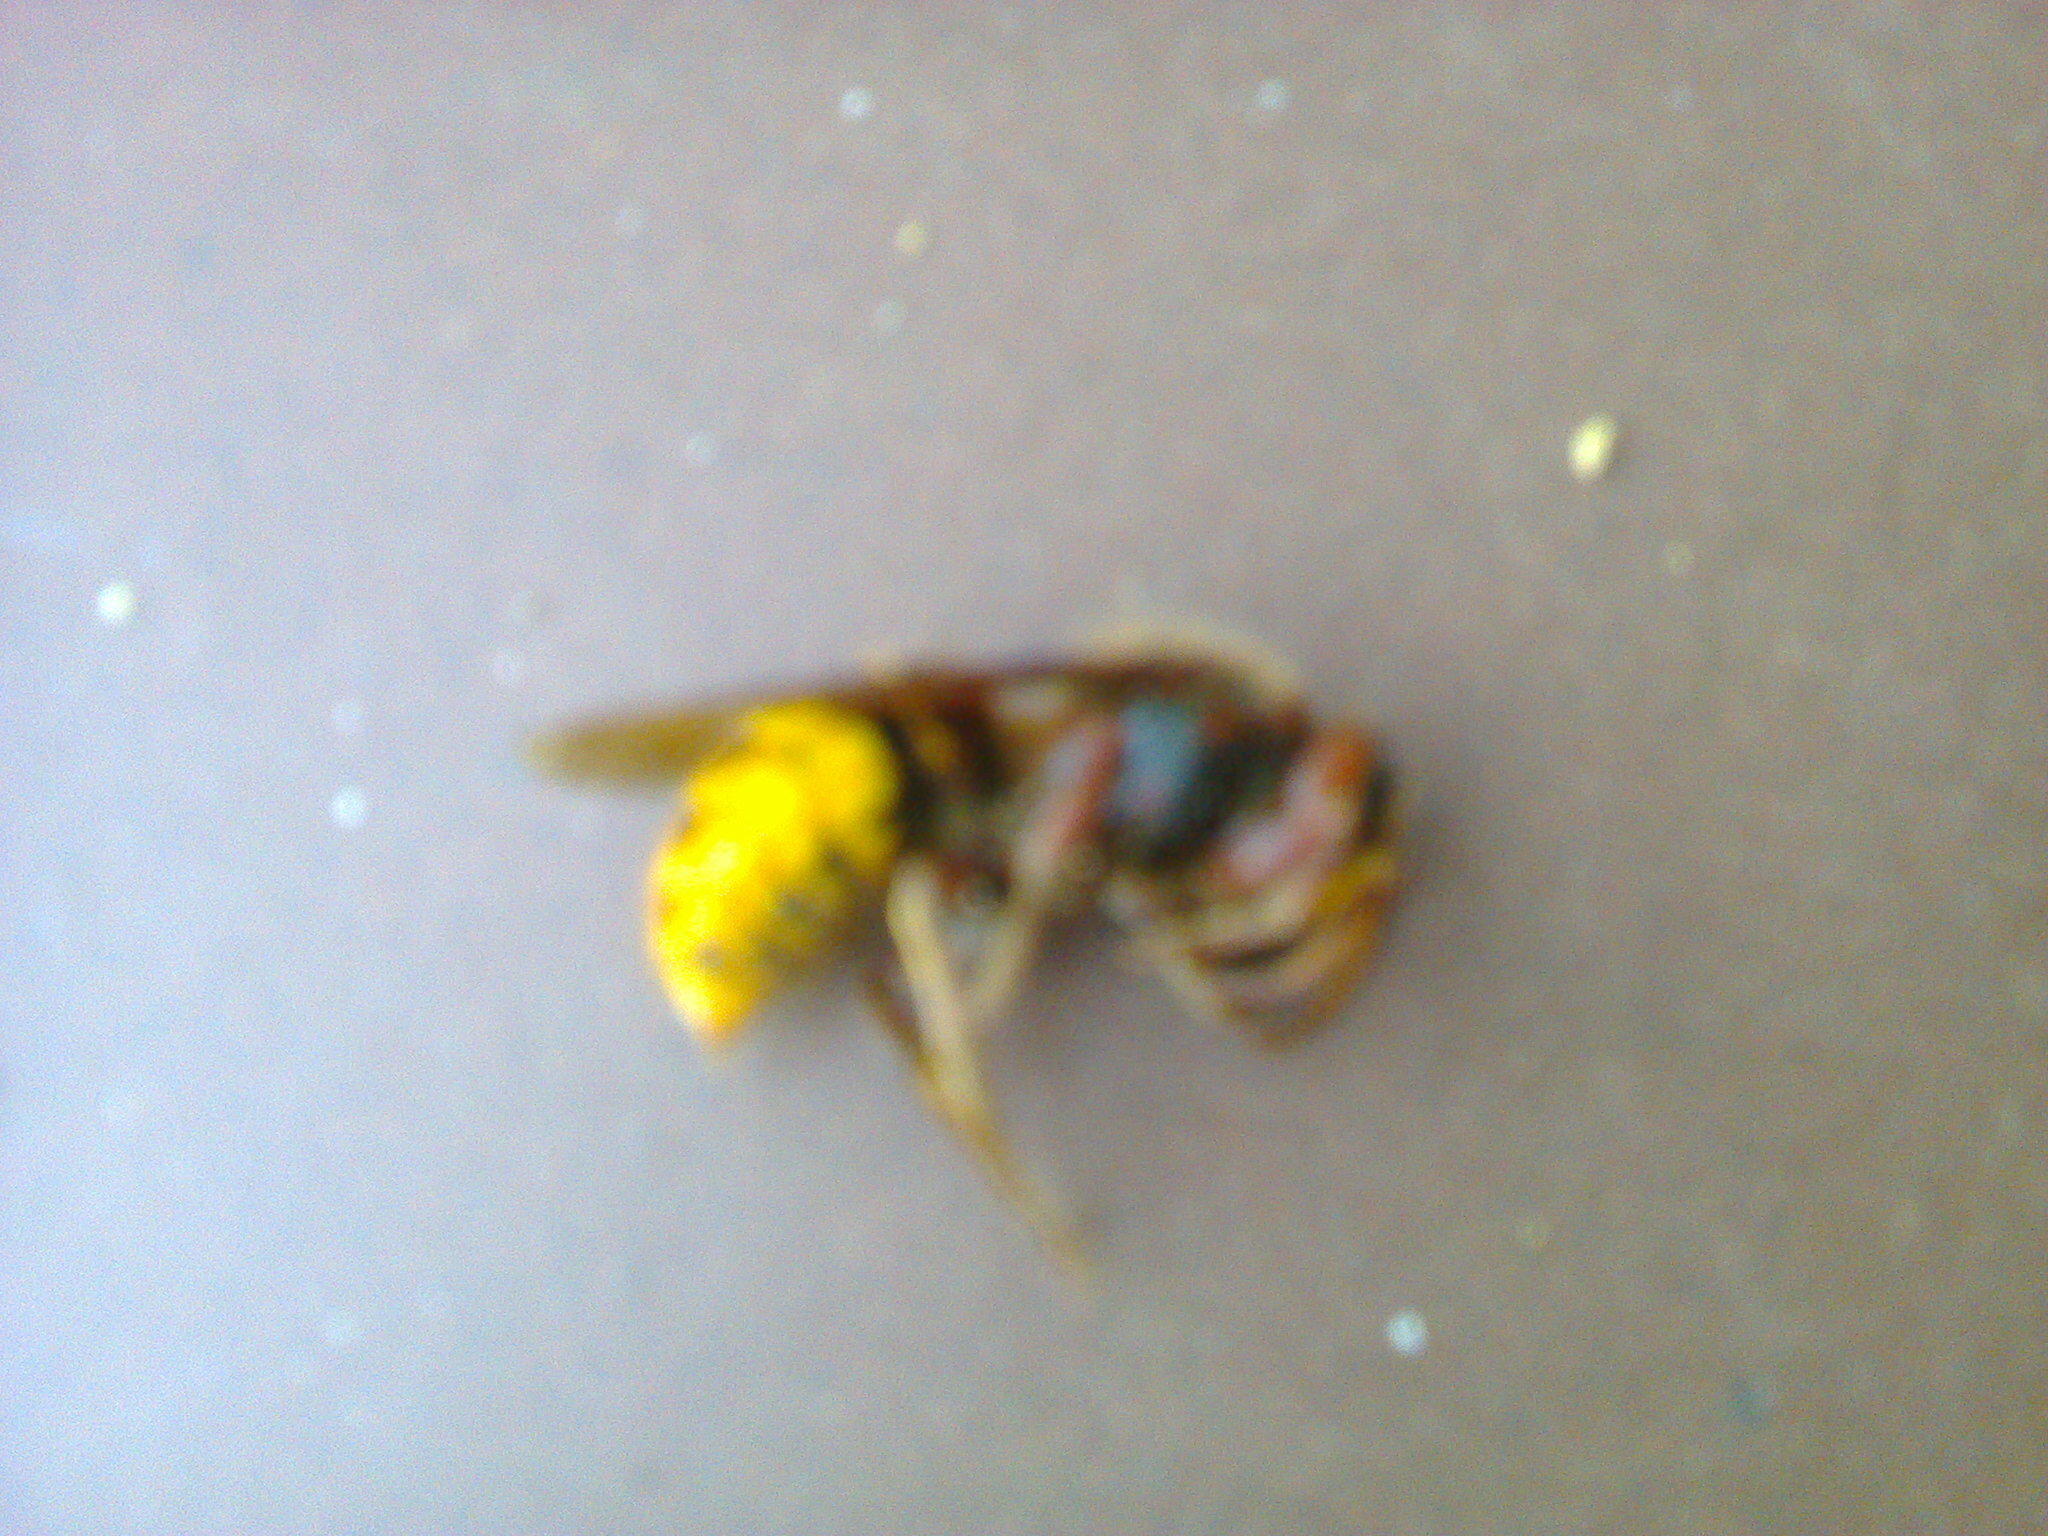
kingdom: Animalia
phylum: Arthropoda
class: Insecta
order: Hymenoptera
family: Vespidae
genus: Vespa
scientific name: Vespa crabro
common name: Hornet
